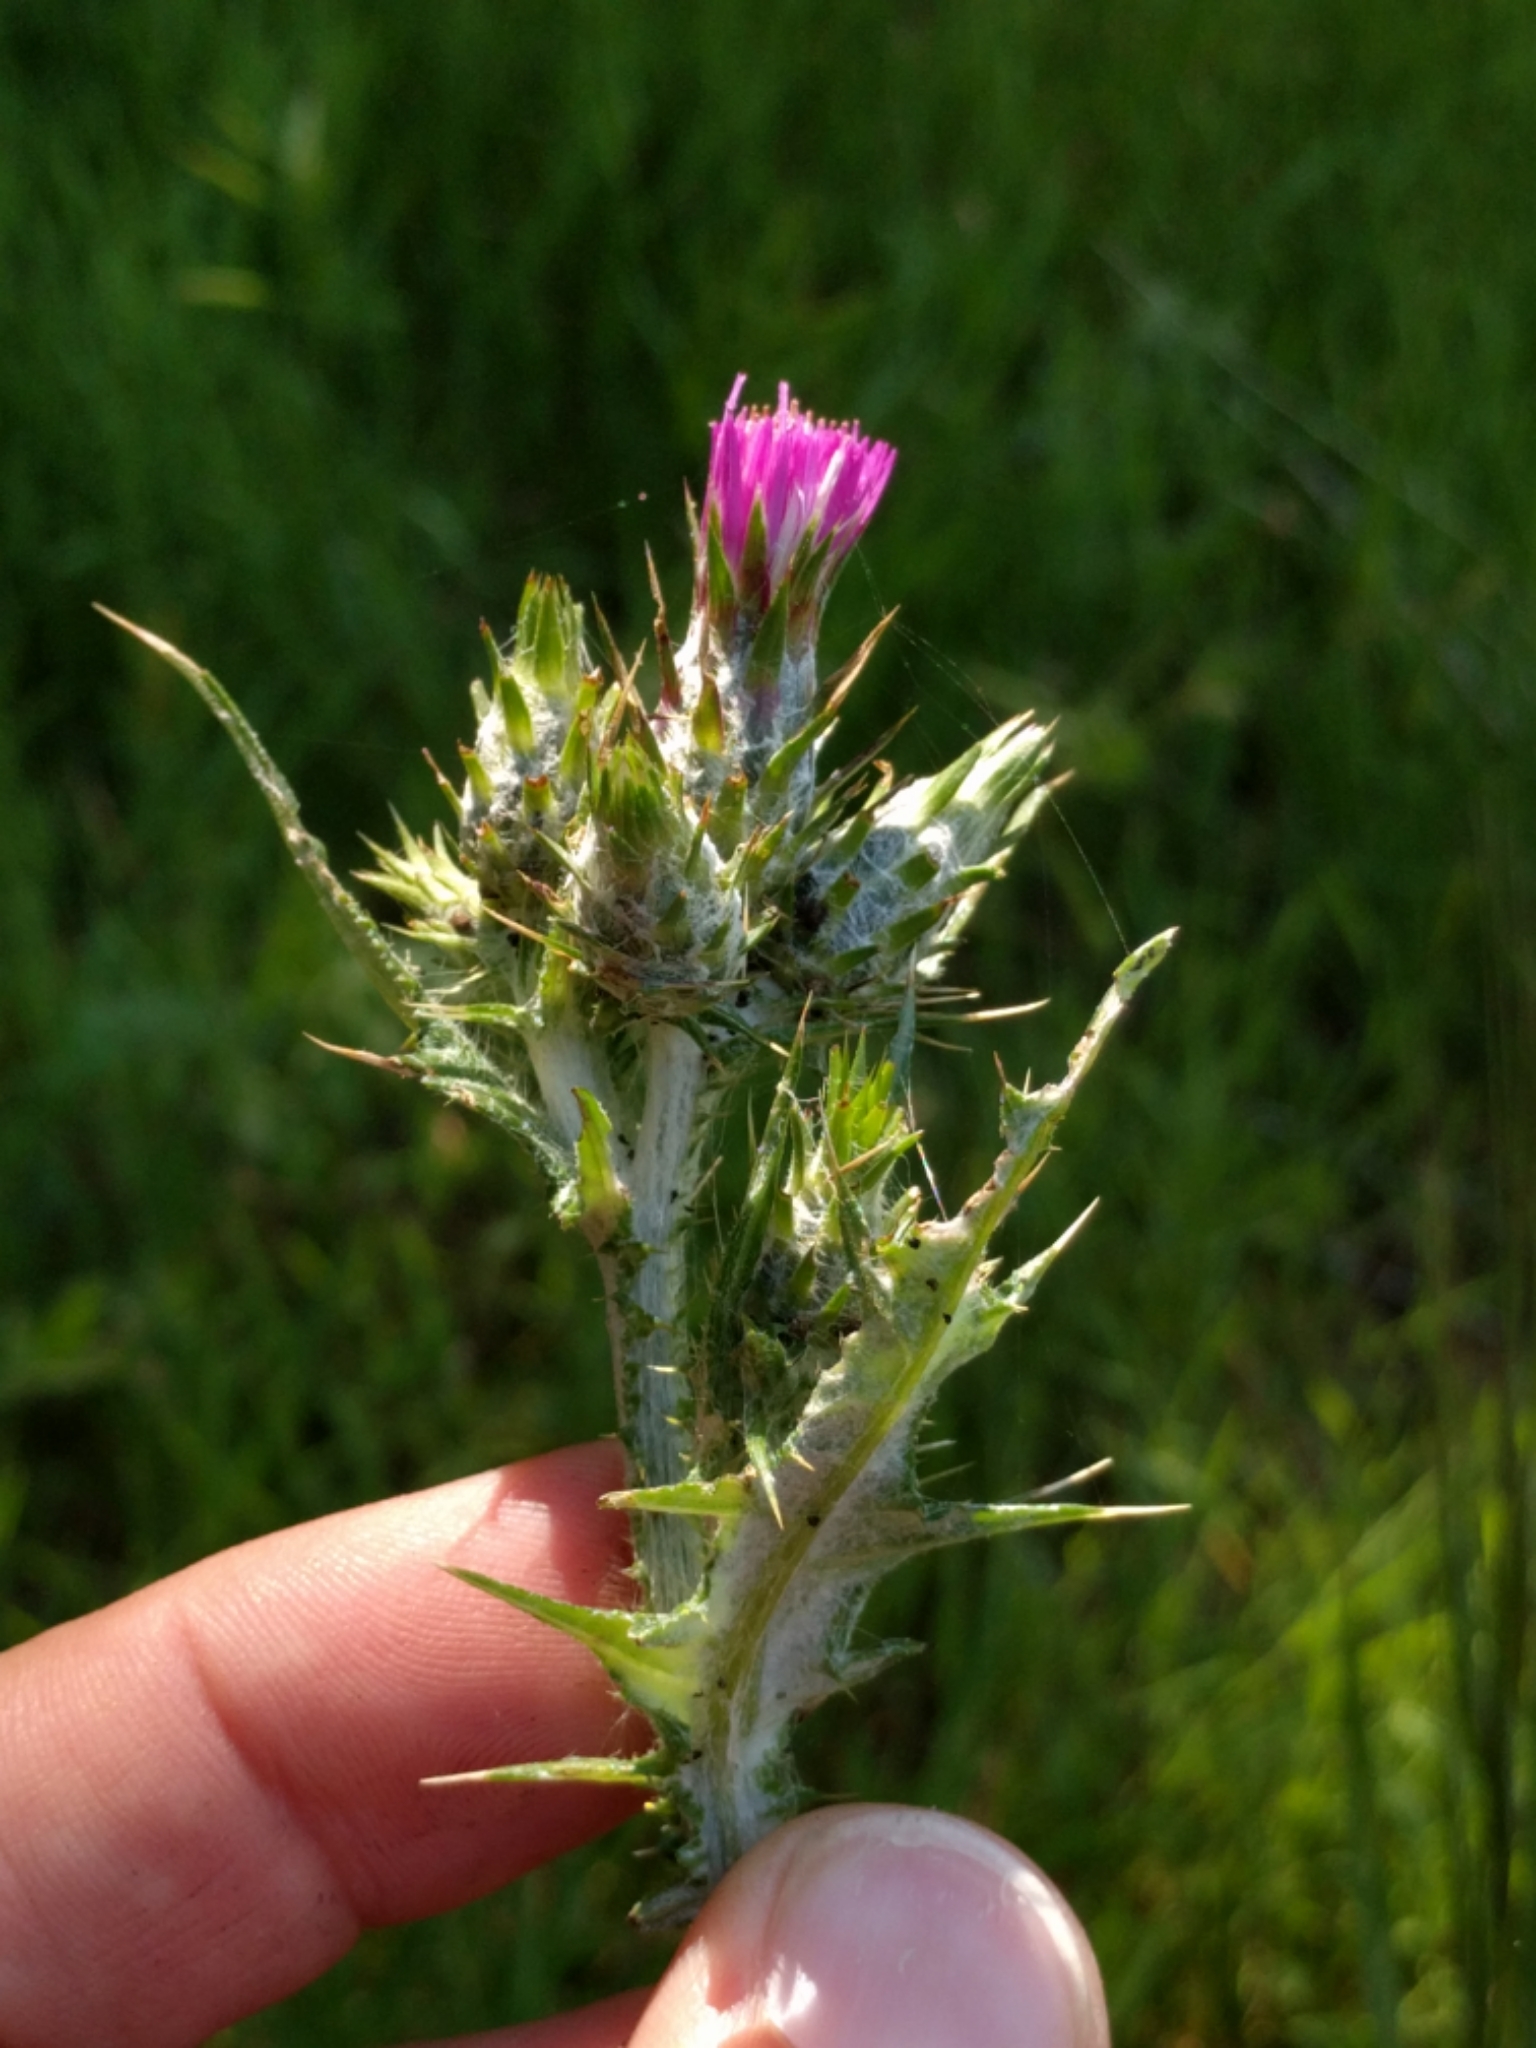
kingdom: Plantae
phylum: Tracheophyta
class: Magnoliopsida
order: Asterales
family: Asteraceae
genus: Carduus
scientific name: Carduus pycnocephalus
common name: Plymouth thistle
